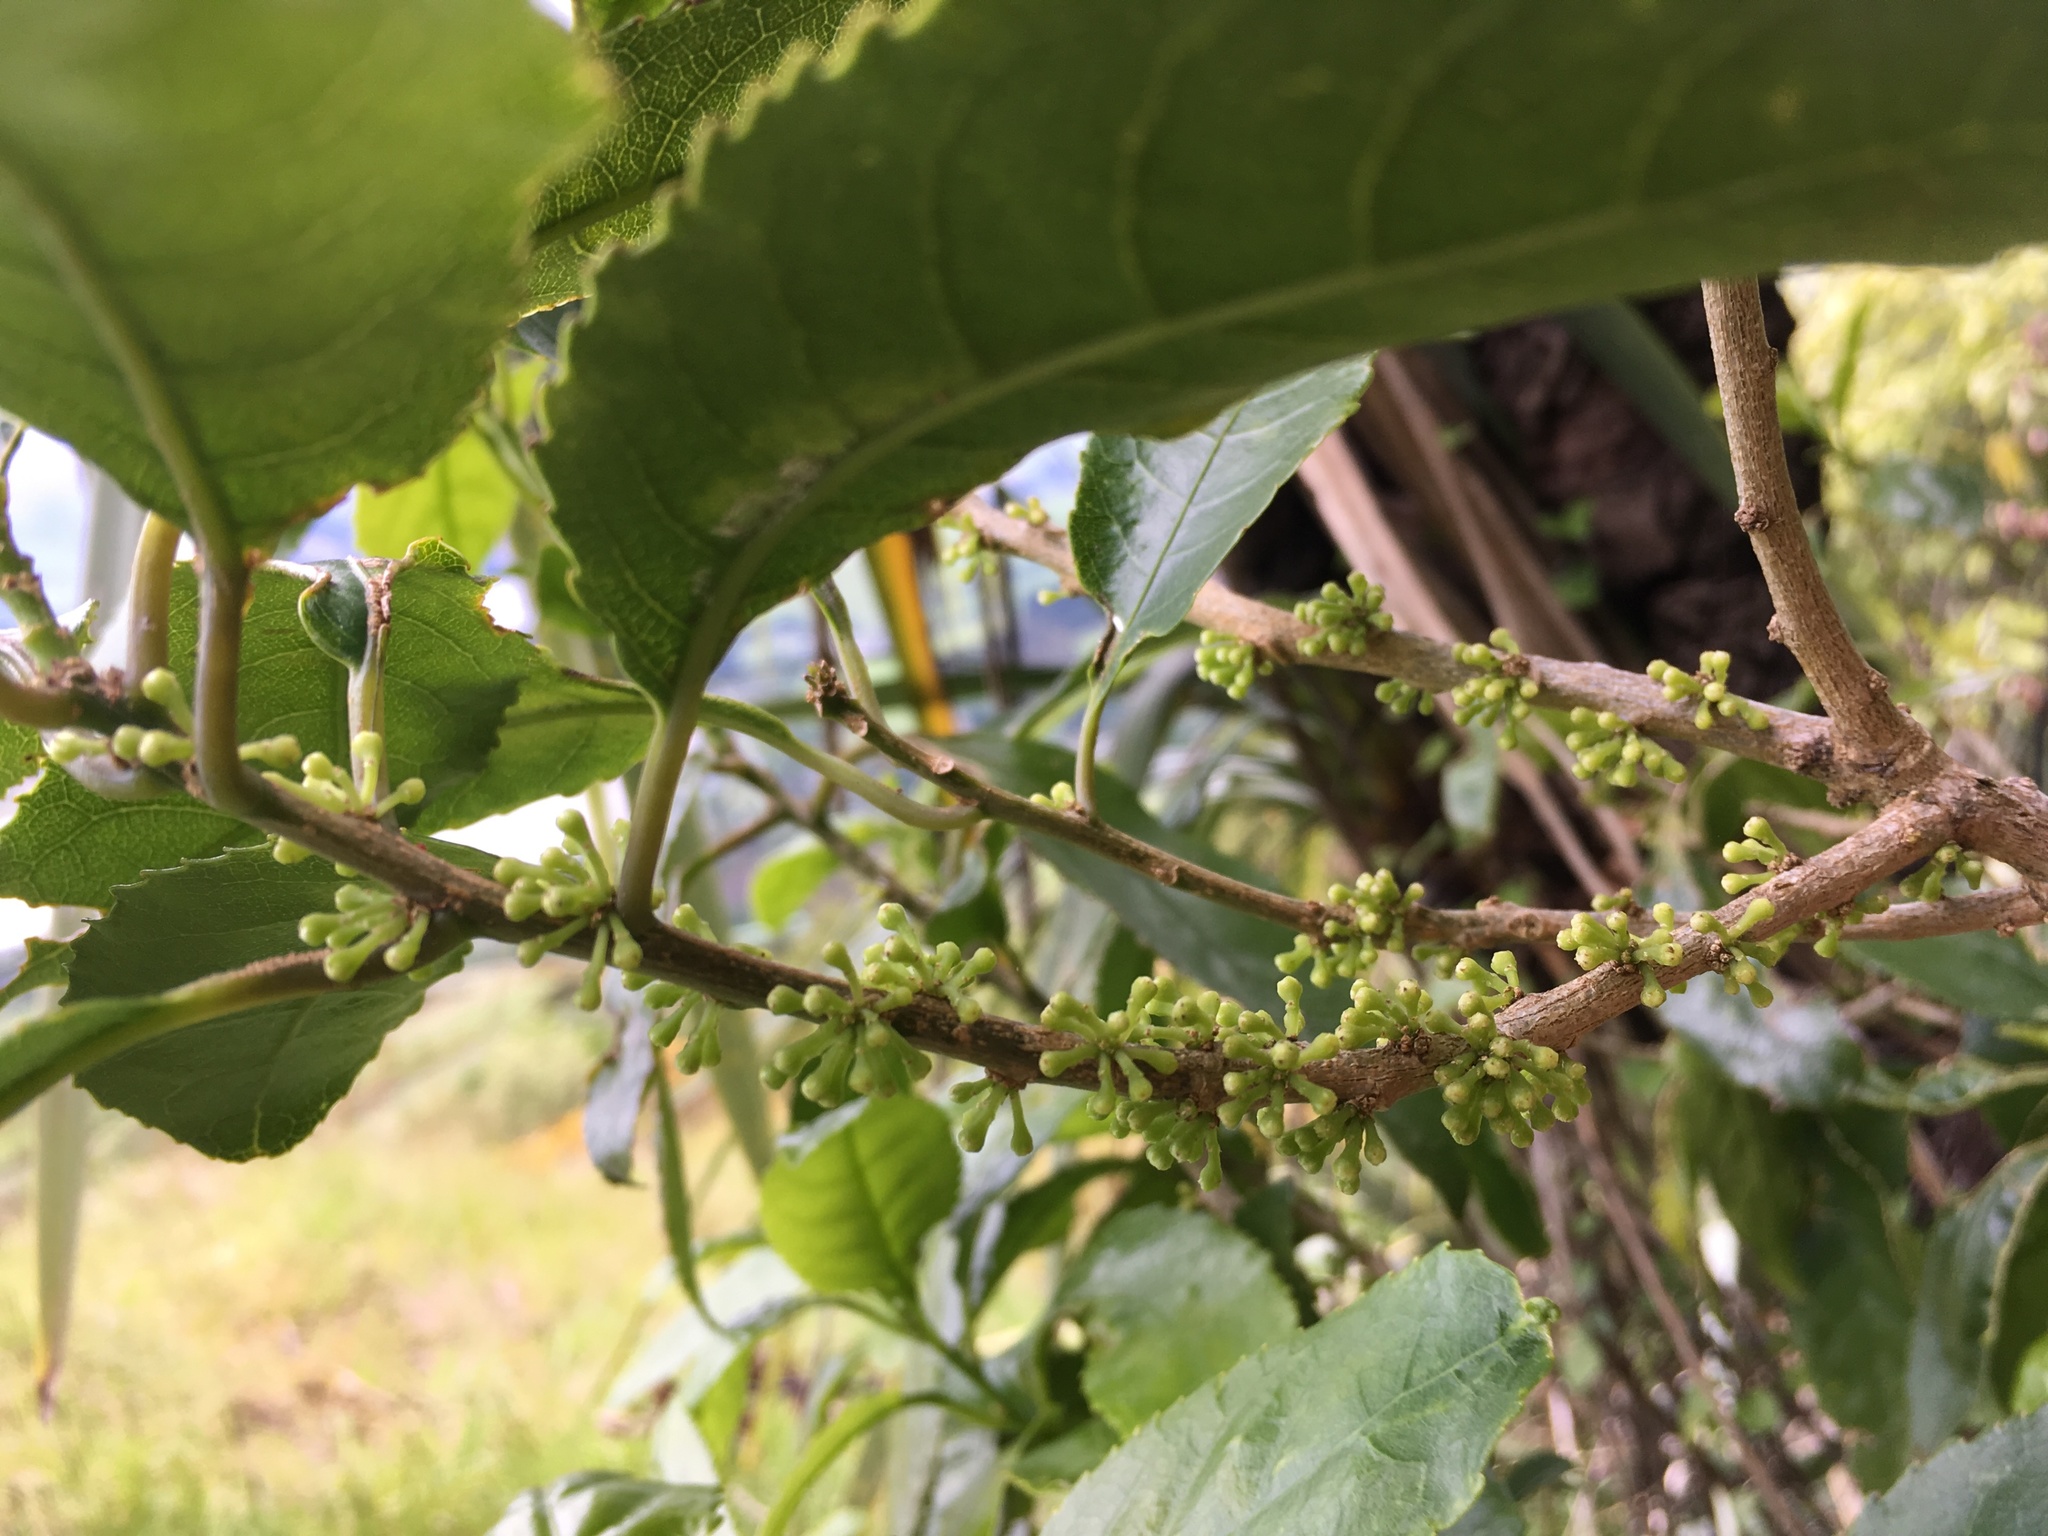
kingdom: Plantae
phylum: Tracheophyta
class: Magnoliopsida
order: Malpighiales
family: Violaceae
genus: Melicytus
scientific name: Melicytus ramiflorus
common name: Mahoe
